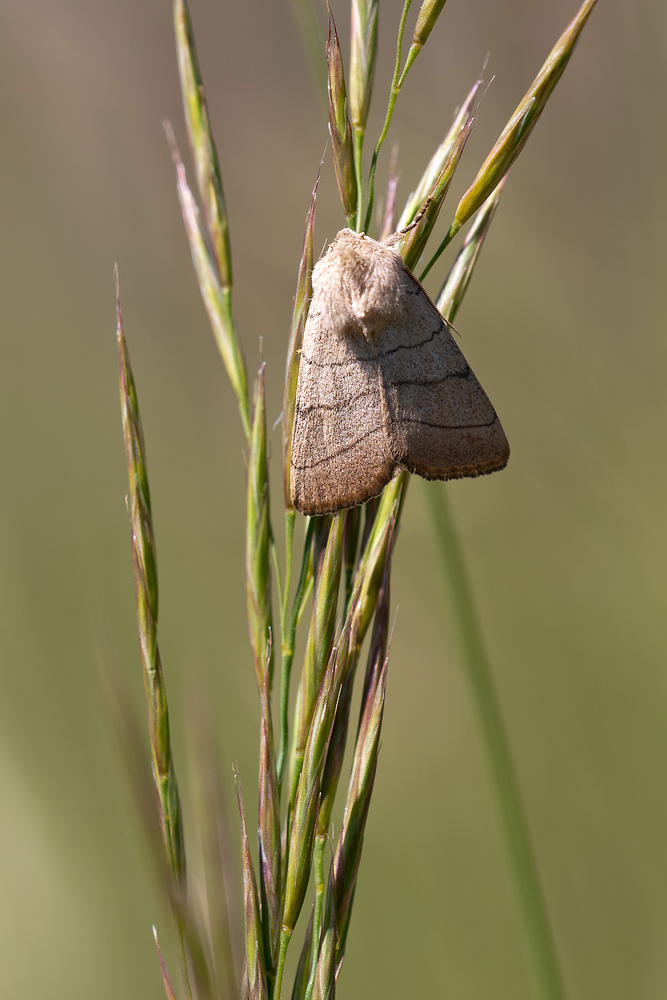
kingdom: Animalia
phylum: Arthropoda
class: Insecta
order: Lepidoptera
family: Noctuidae
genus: Charanyca
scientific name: Charanyca trigrammica
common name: Treble lines
